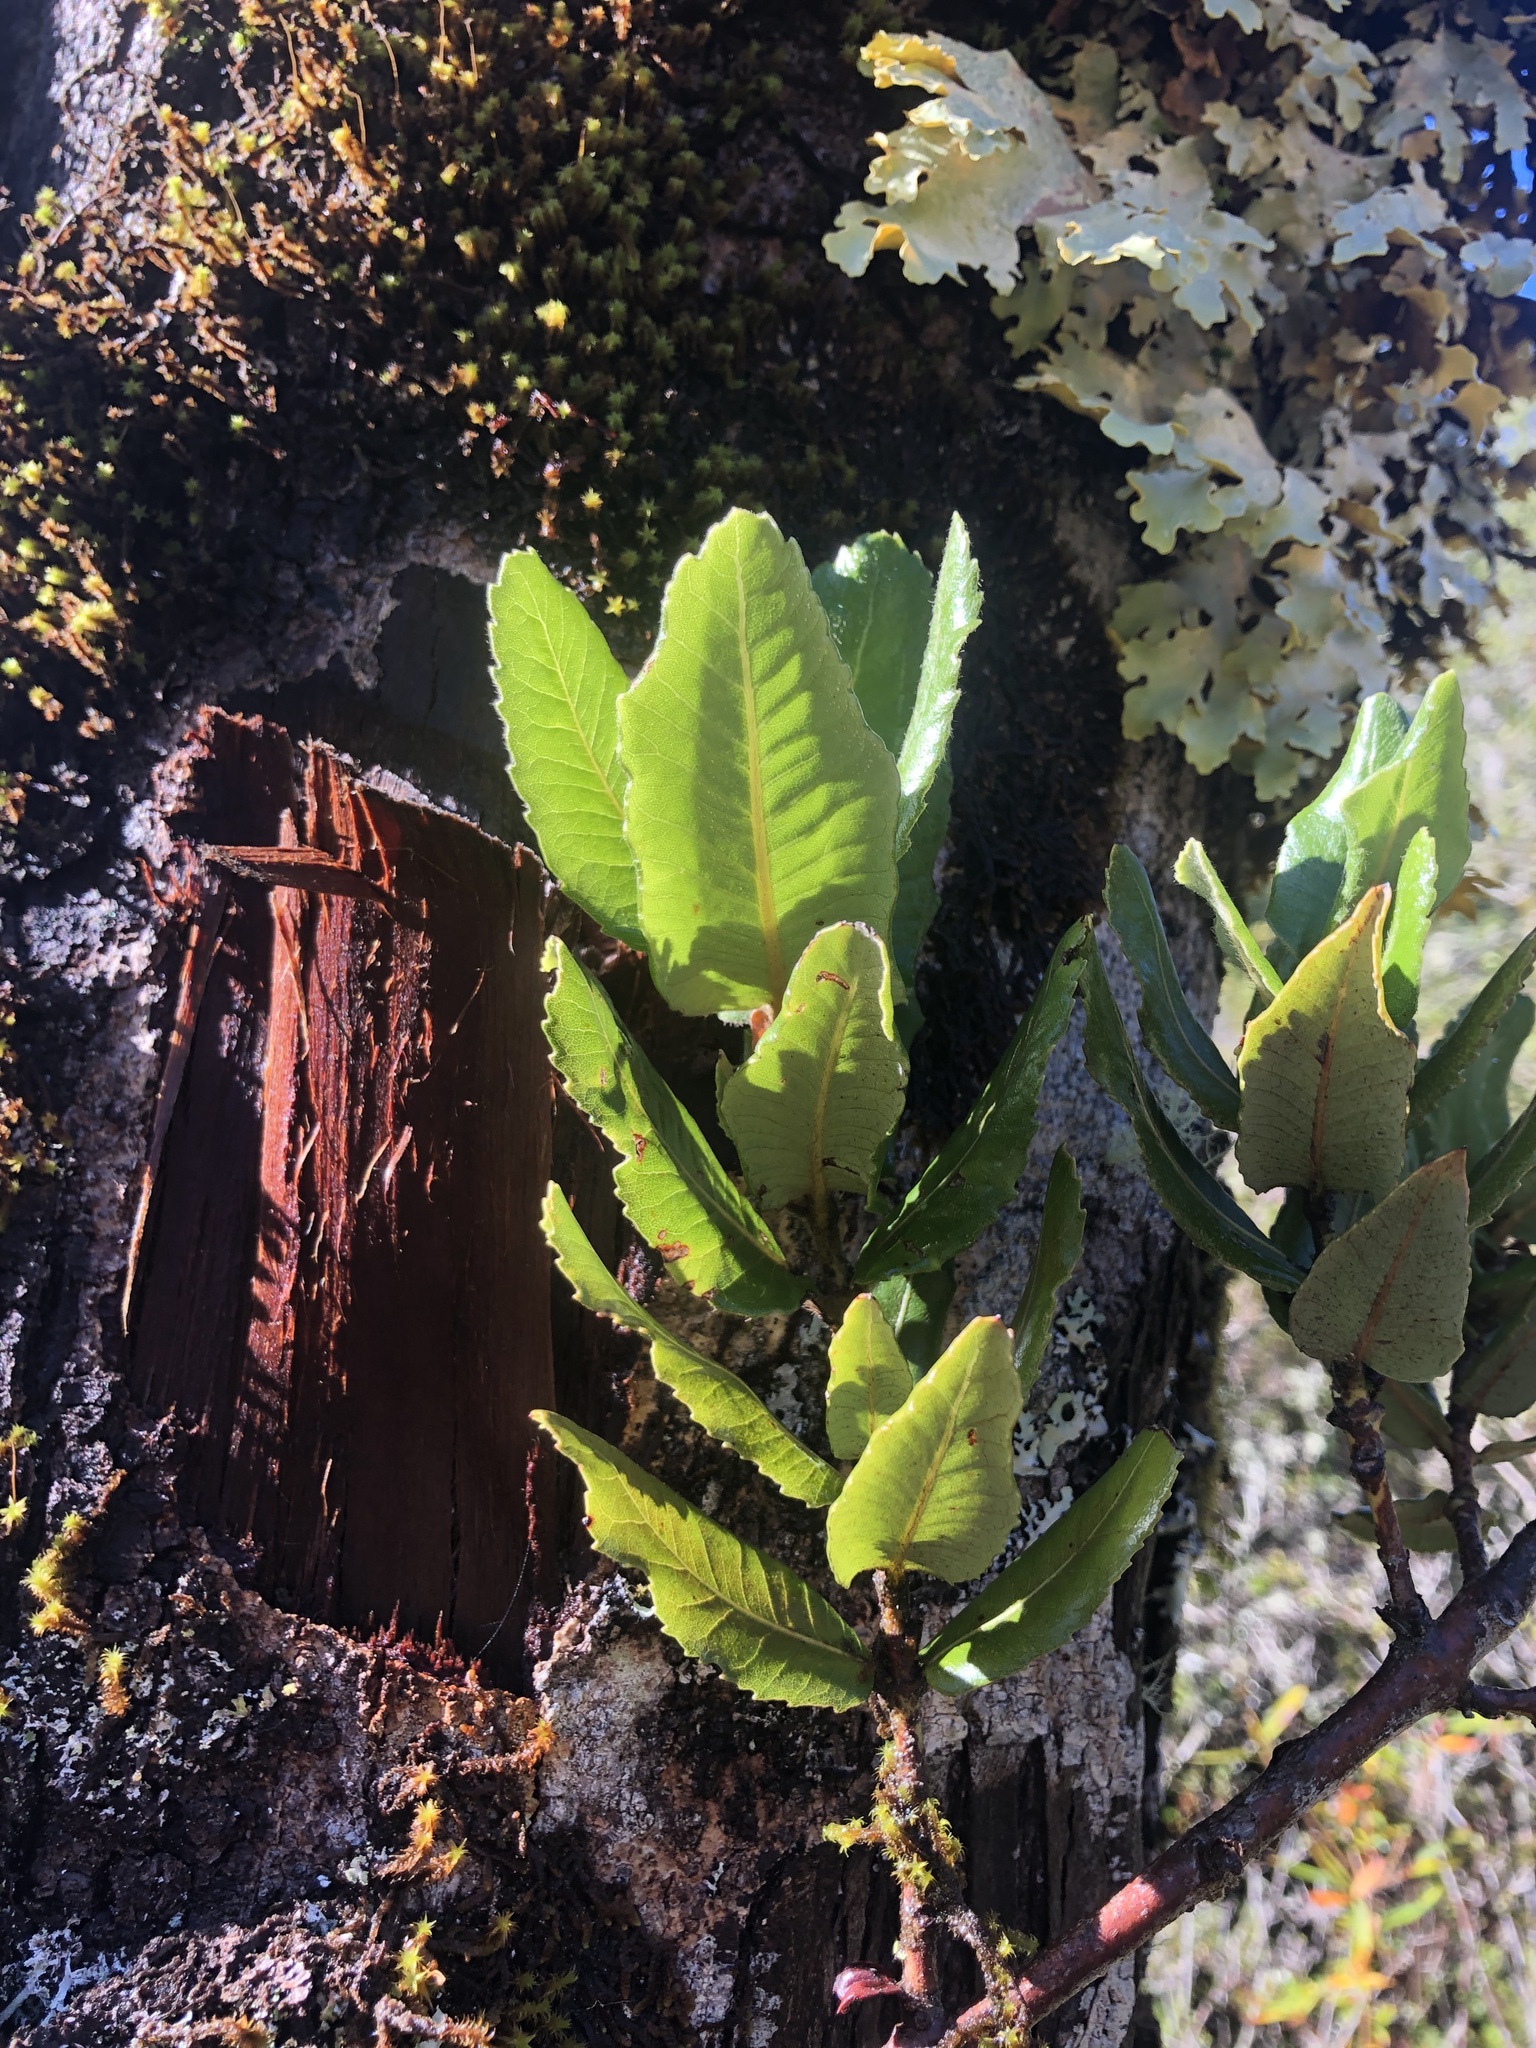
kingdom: Plantae
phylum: Tracheophyta
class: Magnoliopsida
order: Oxalidales
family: Cunoniaceae
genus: Eucryphia
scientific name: Eucryphia cordifolia
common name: Ulmo
